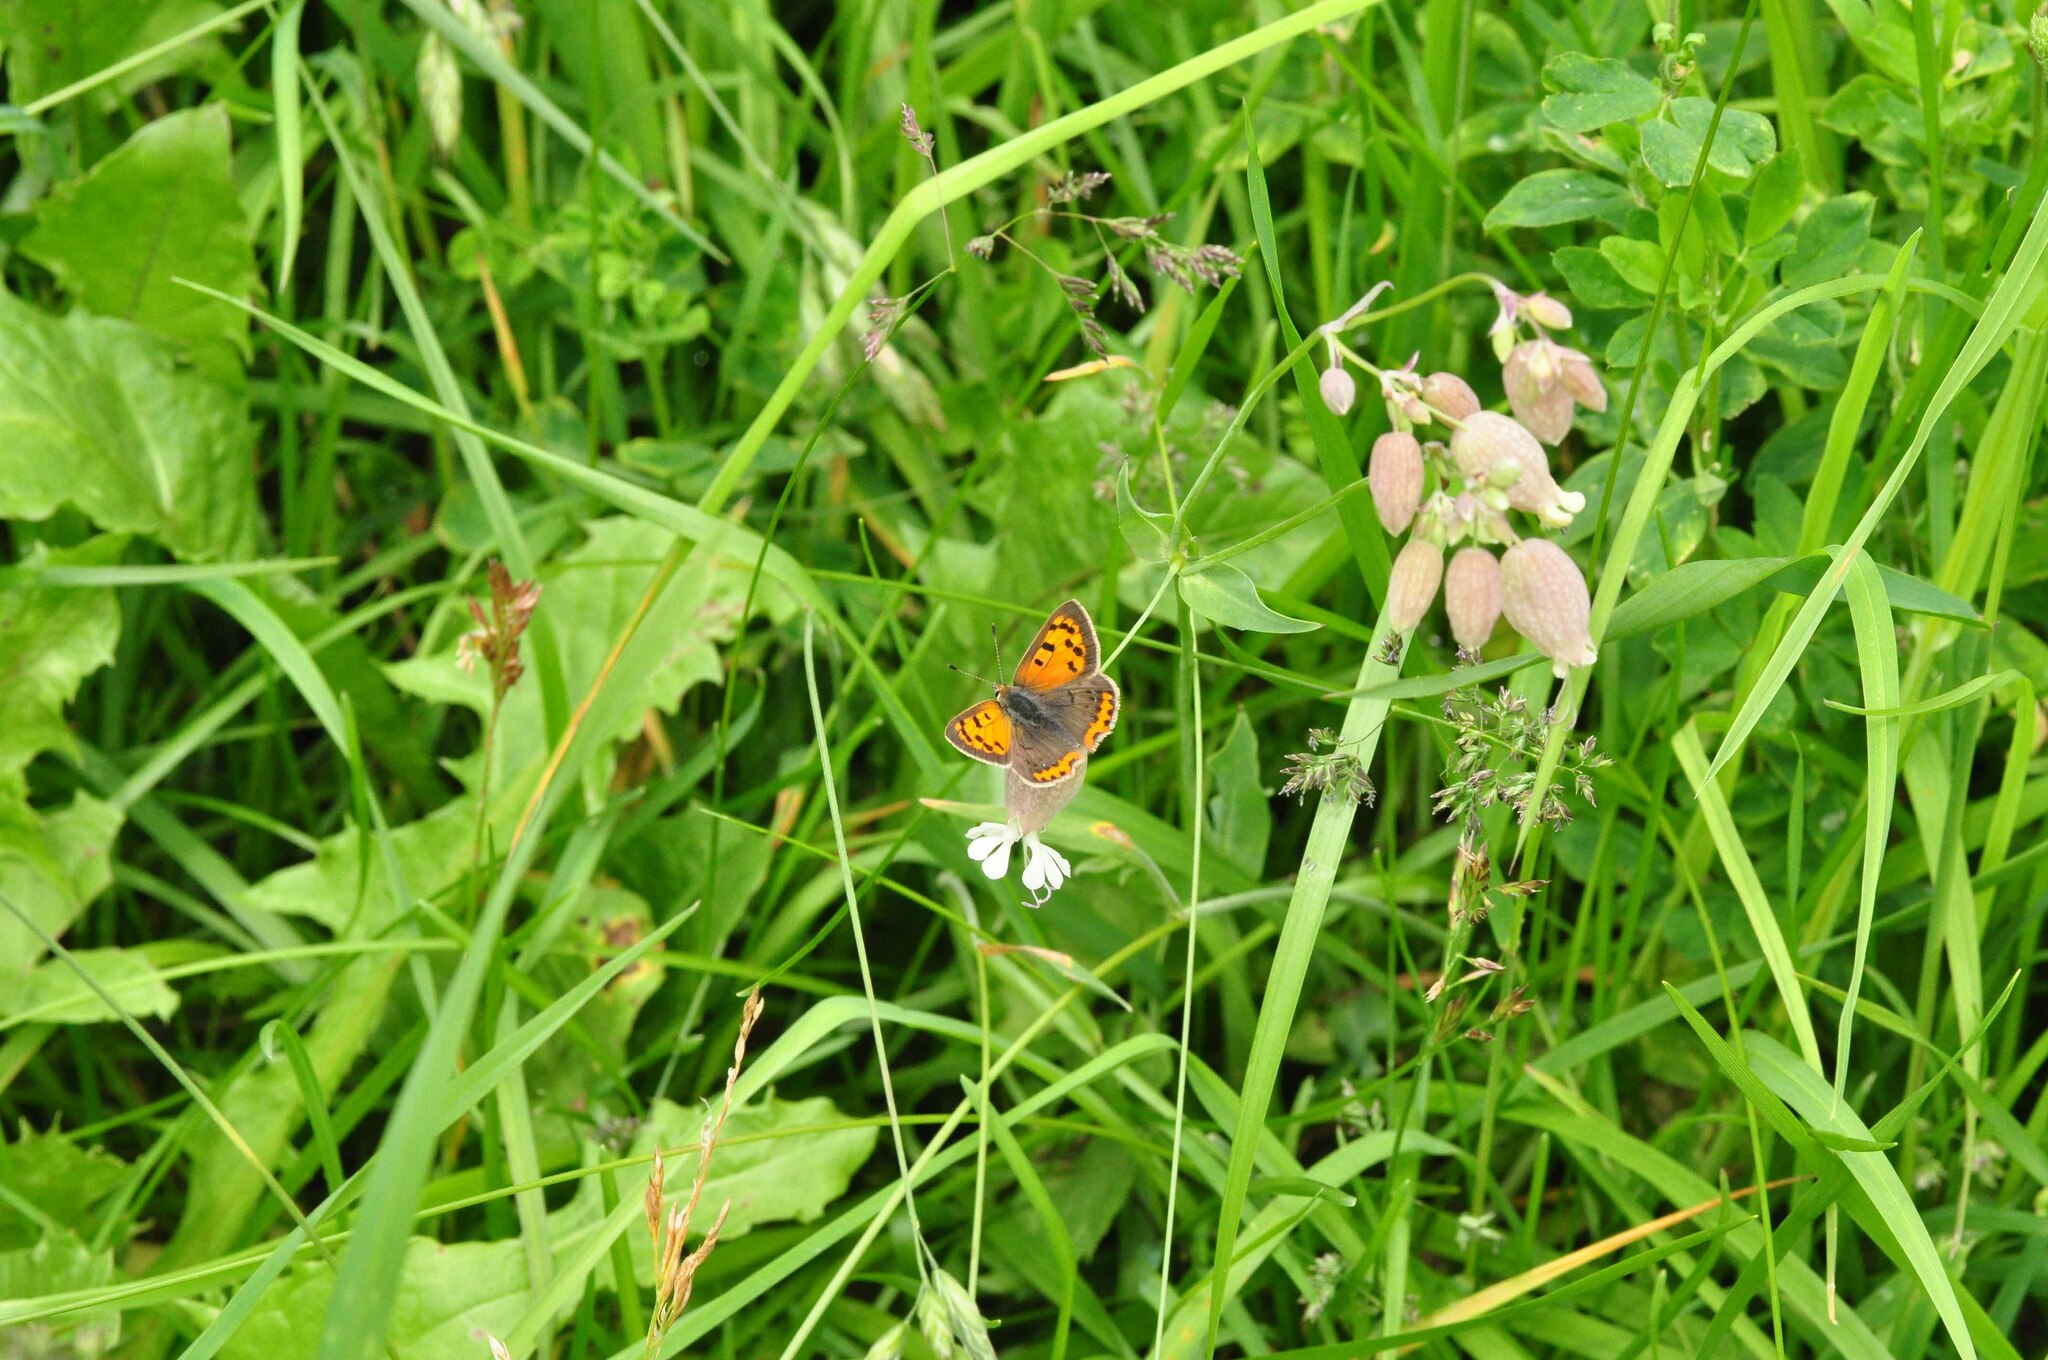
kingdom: Animalia
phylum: Arthropoda
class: Insecta
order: Lepidoptera
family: Lycaenidae
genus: Lycaena
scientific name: Lycaena phlaeas
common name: Small copper
